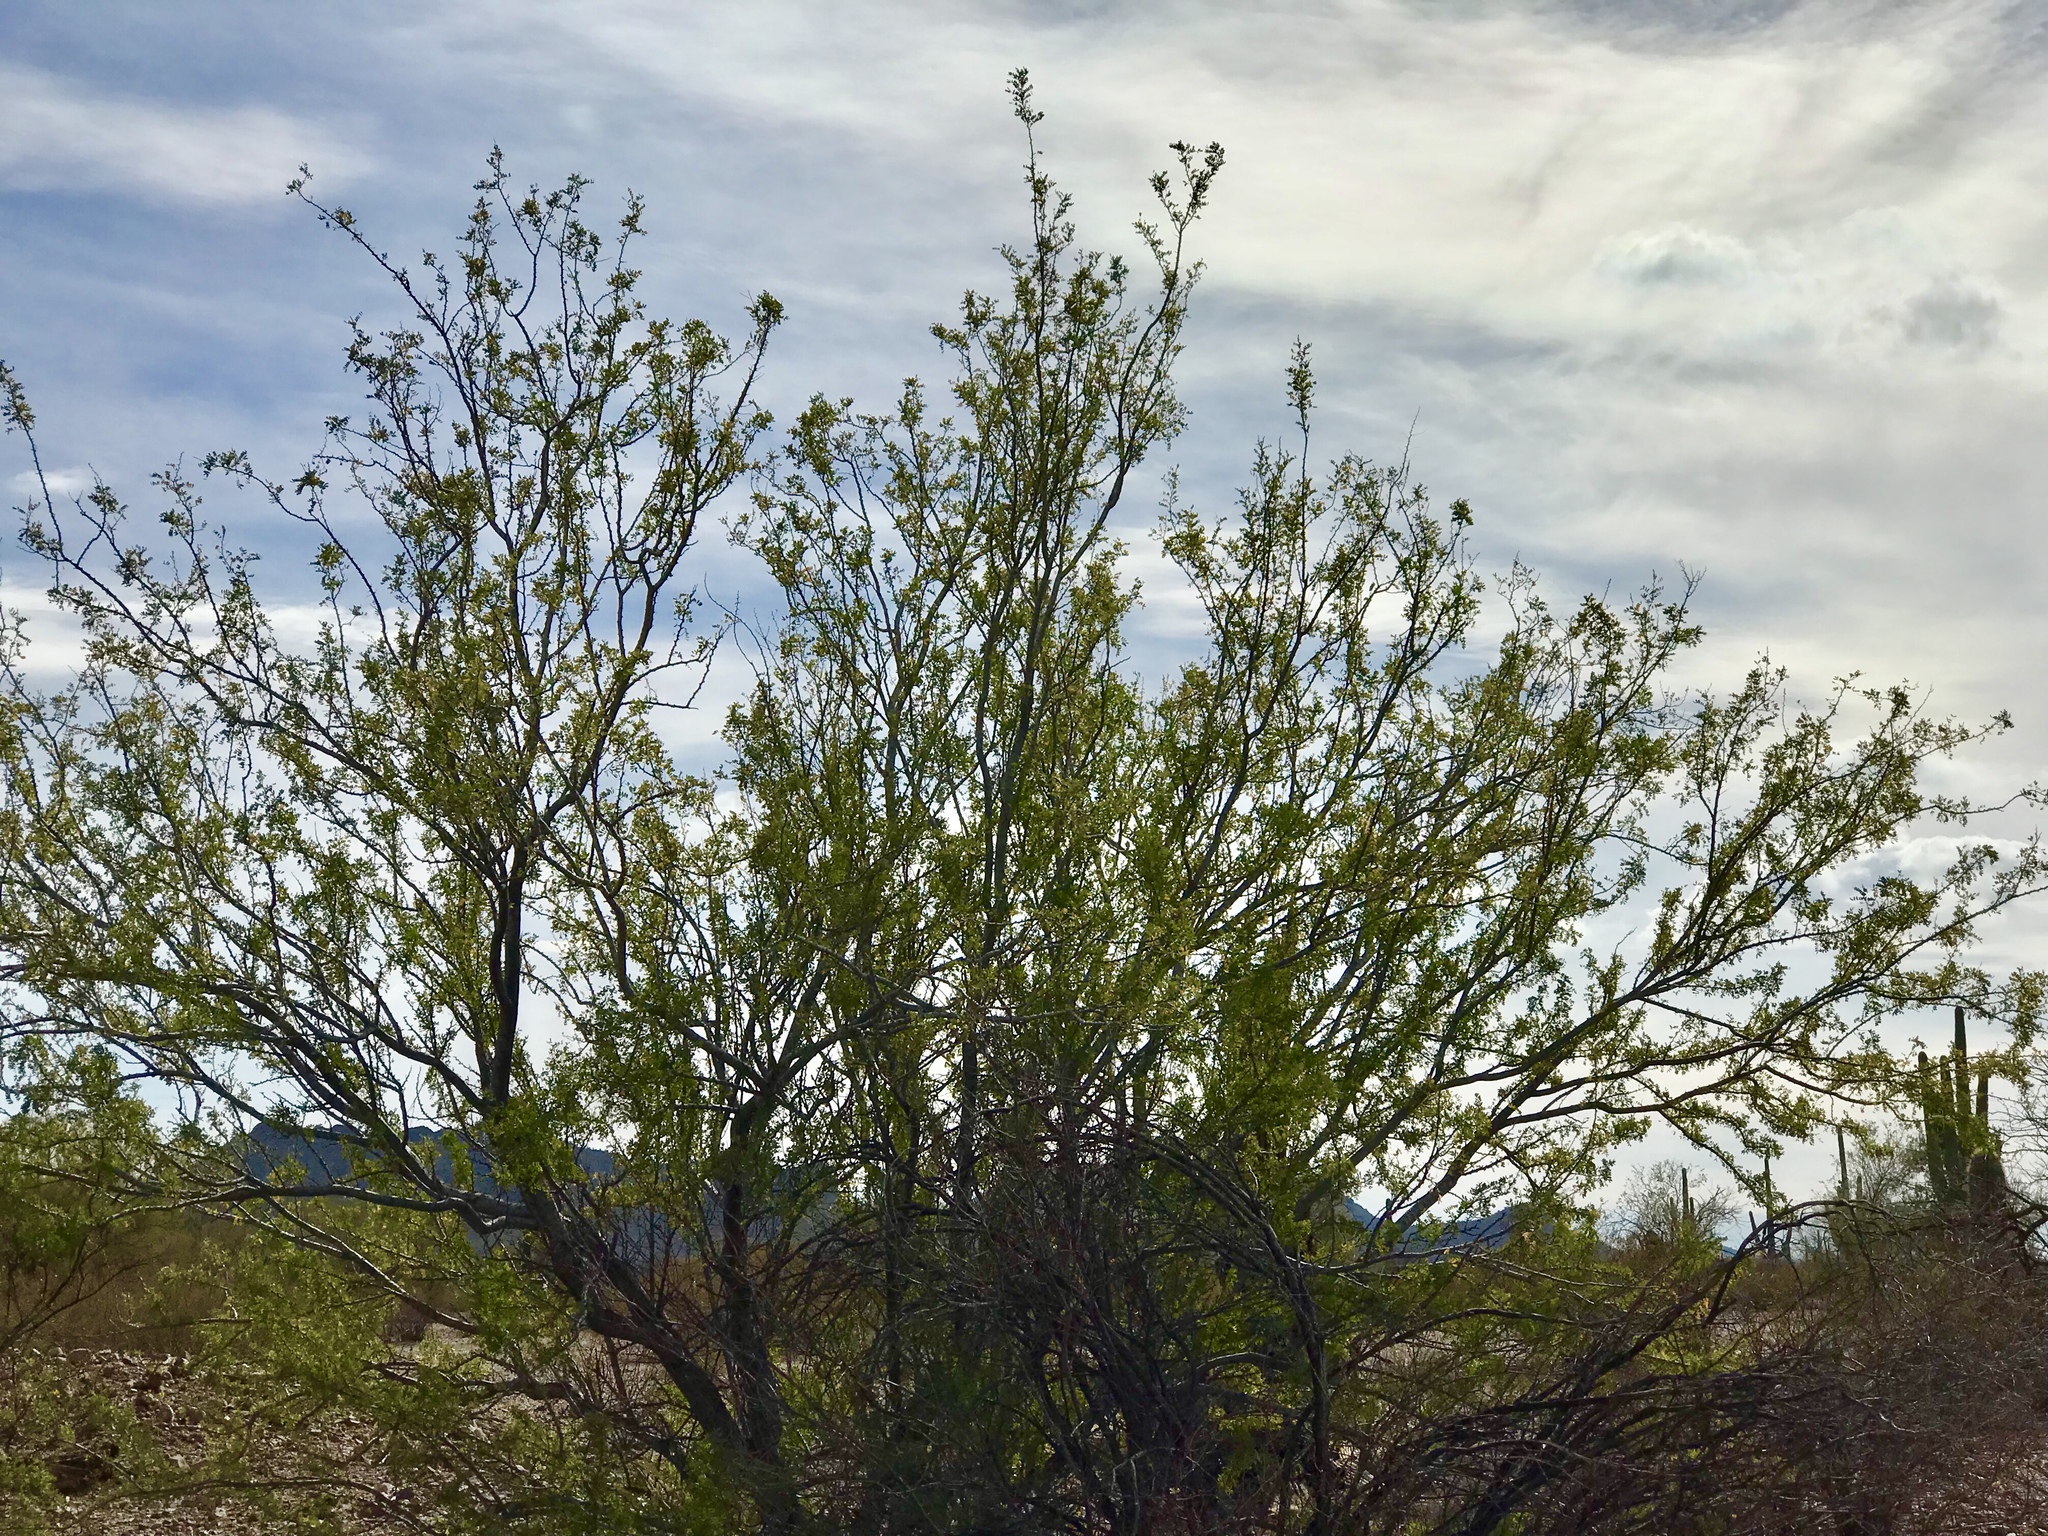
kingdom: Plantae
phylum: Tracheophyta
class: Magnoliopsida
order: Fabales
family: Fabaceae
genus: Olneya
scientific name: Olneya tesota
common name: Desert ironwood
